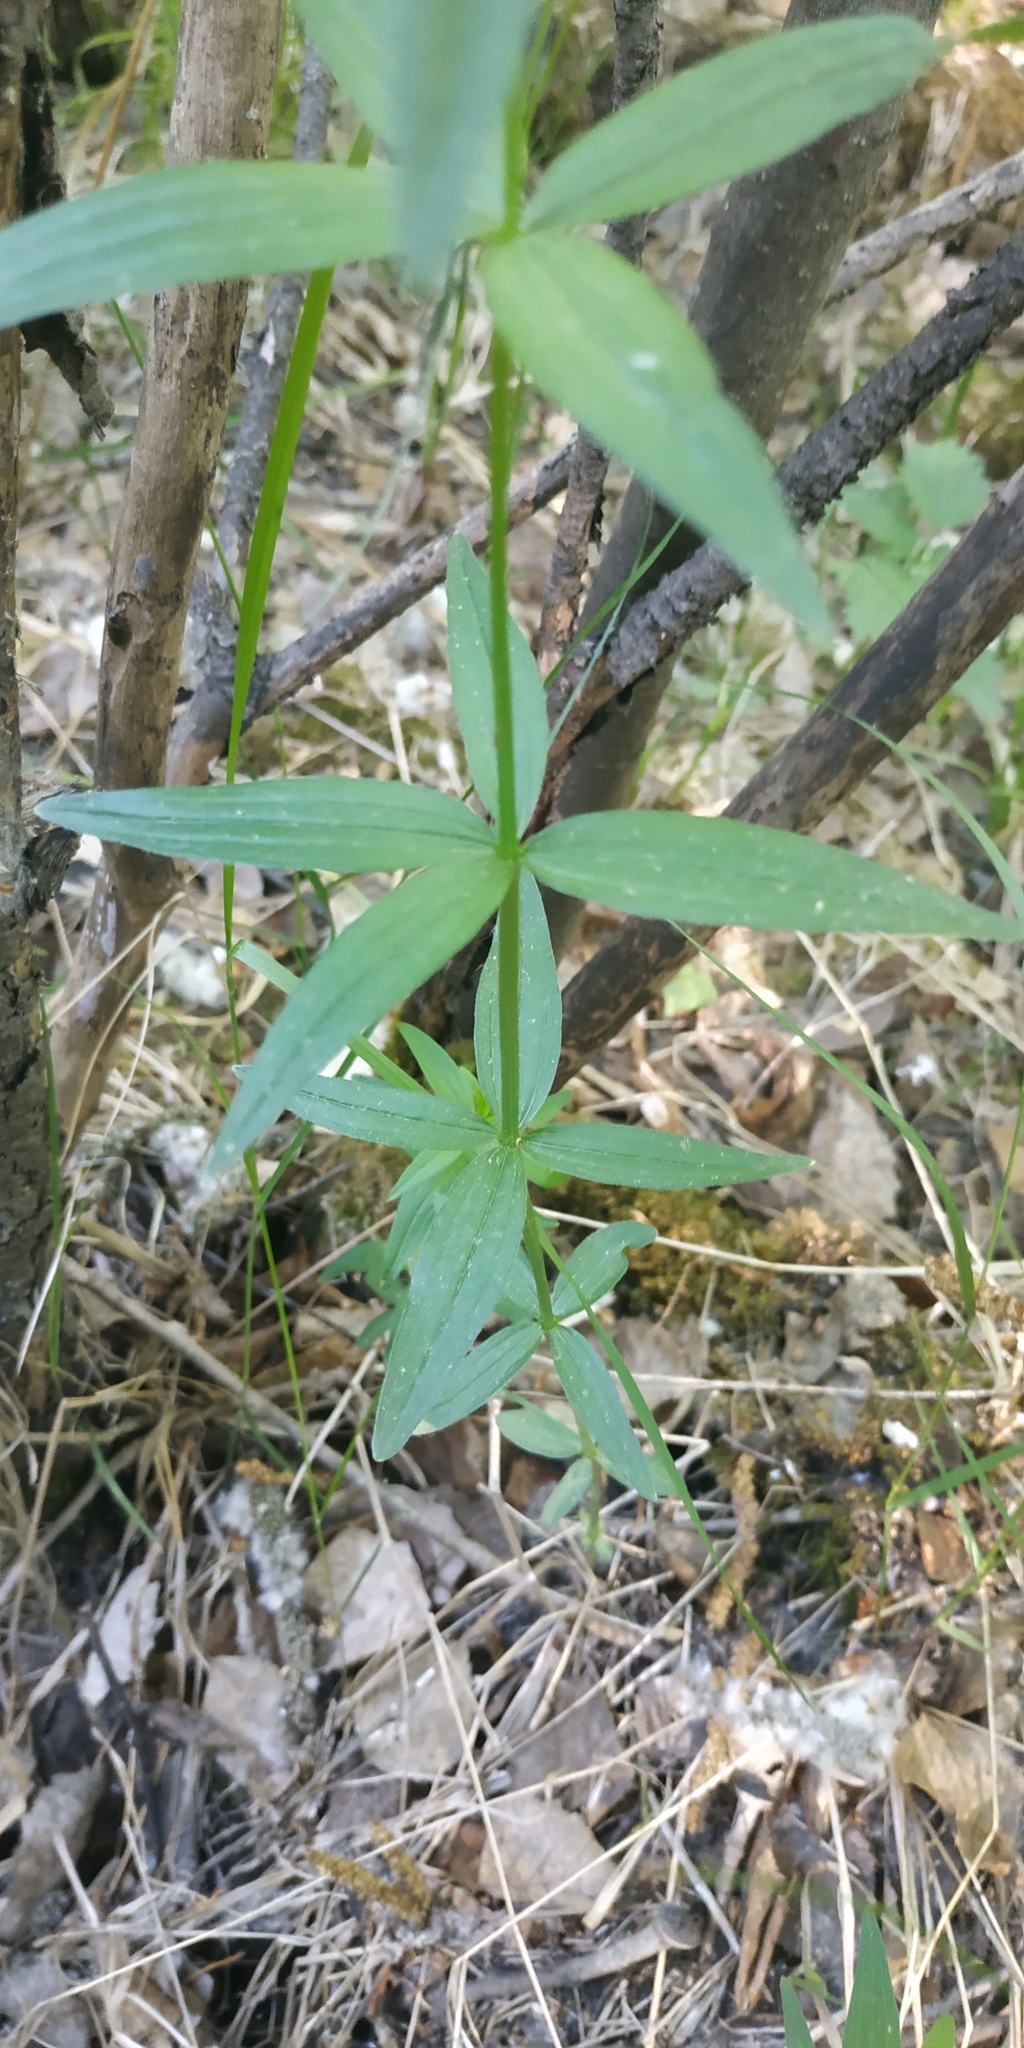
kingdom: Plantae
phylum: Tracheophyta
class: Magnoliopsida
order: Gentianales
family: Rubiaceae
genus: Galium
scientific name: Galium boreale
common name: Northern bedstraw
